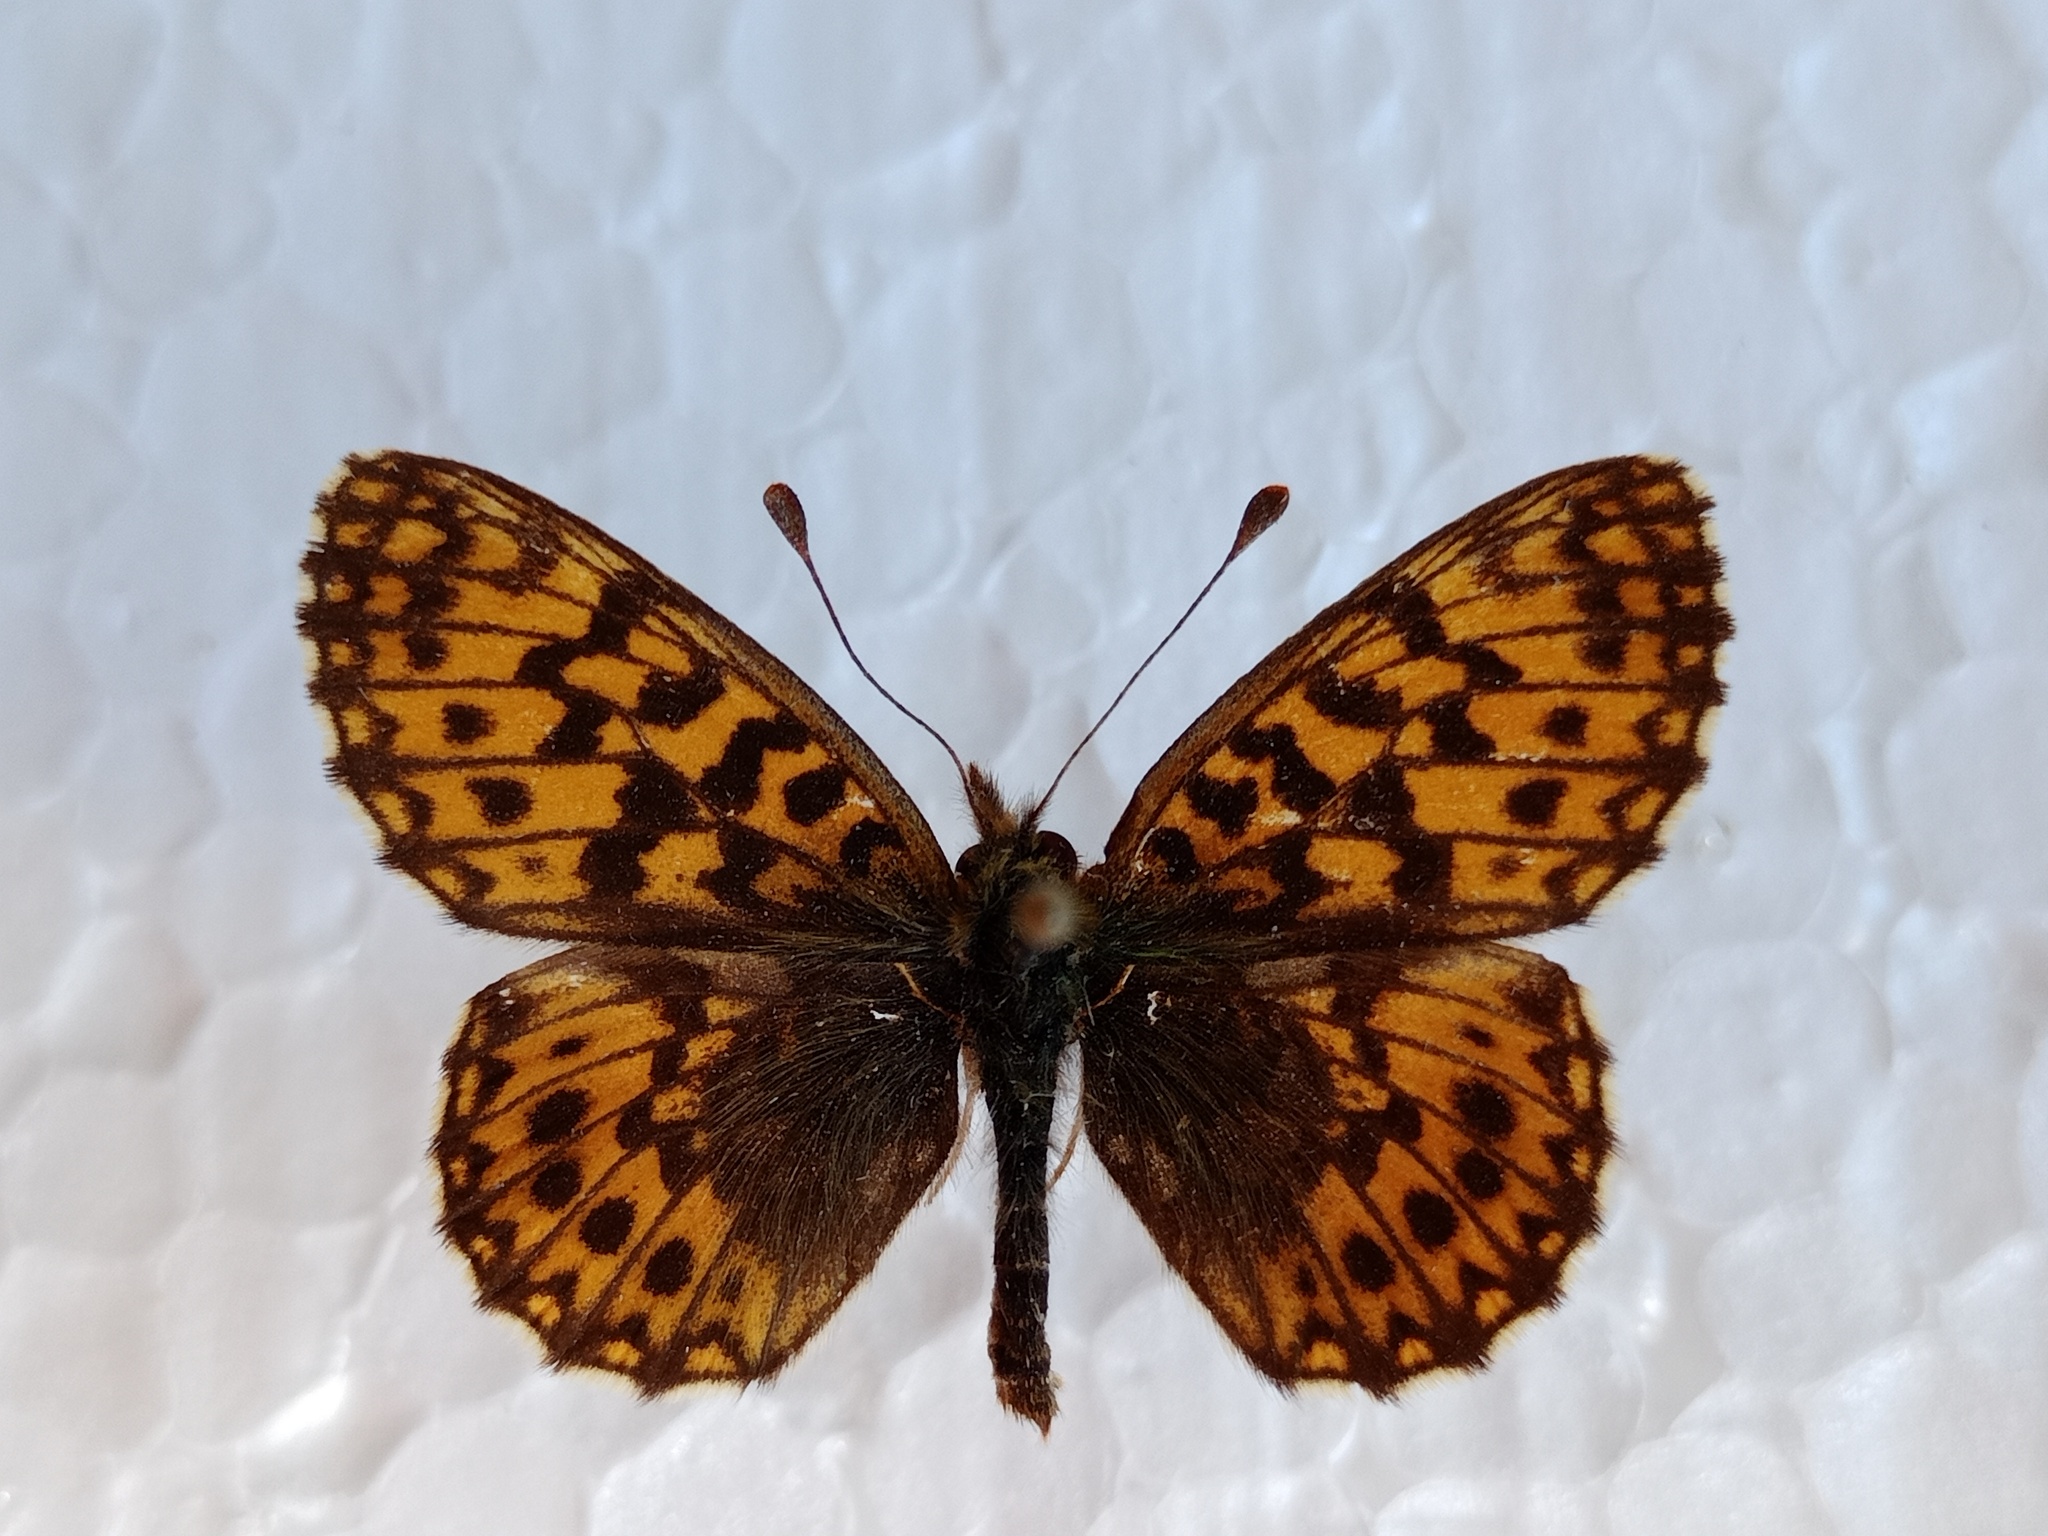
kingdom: Animalia
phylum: Arthropoda
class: Insecta
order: Lepidoptera
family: Nymphalidae
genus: Boloria
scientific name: Boloria dia
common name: Weaver's fritillary
